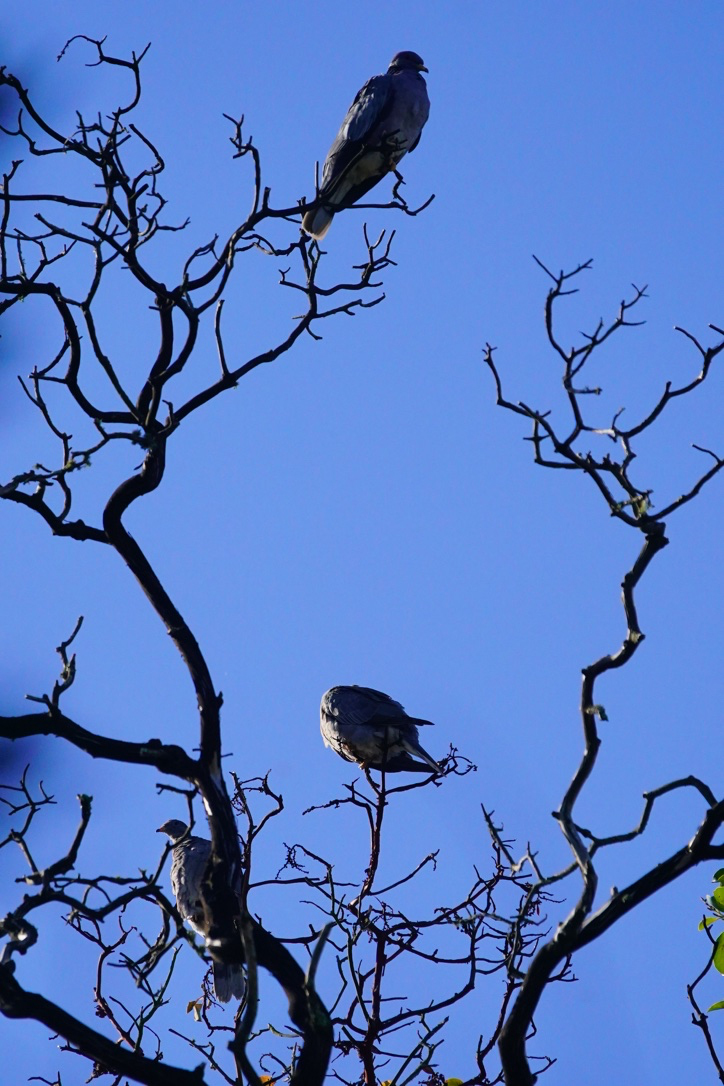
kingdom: Animalia
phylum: Chordata
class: Aves
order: Columbiformes
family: Columbidae
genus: Patagioenas
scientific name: Patagioenas fasciata
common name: Band-tailed pigeon
